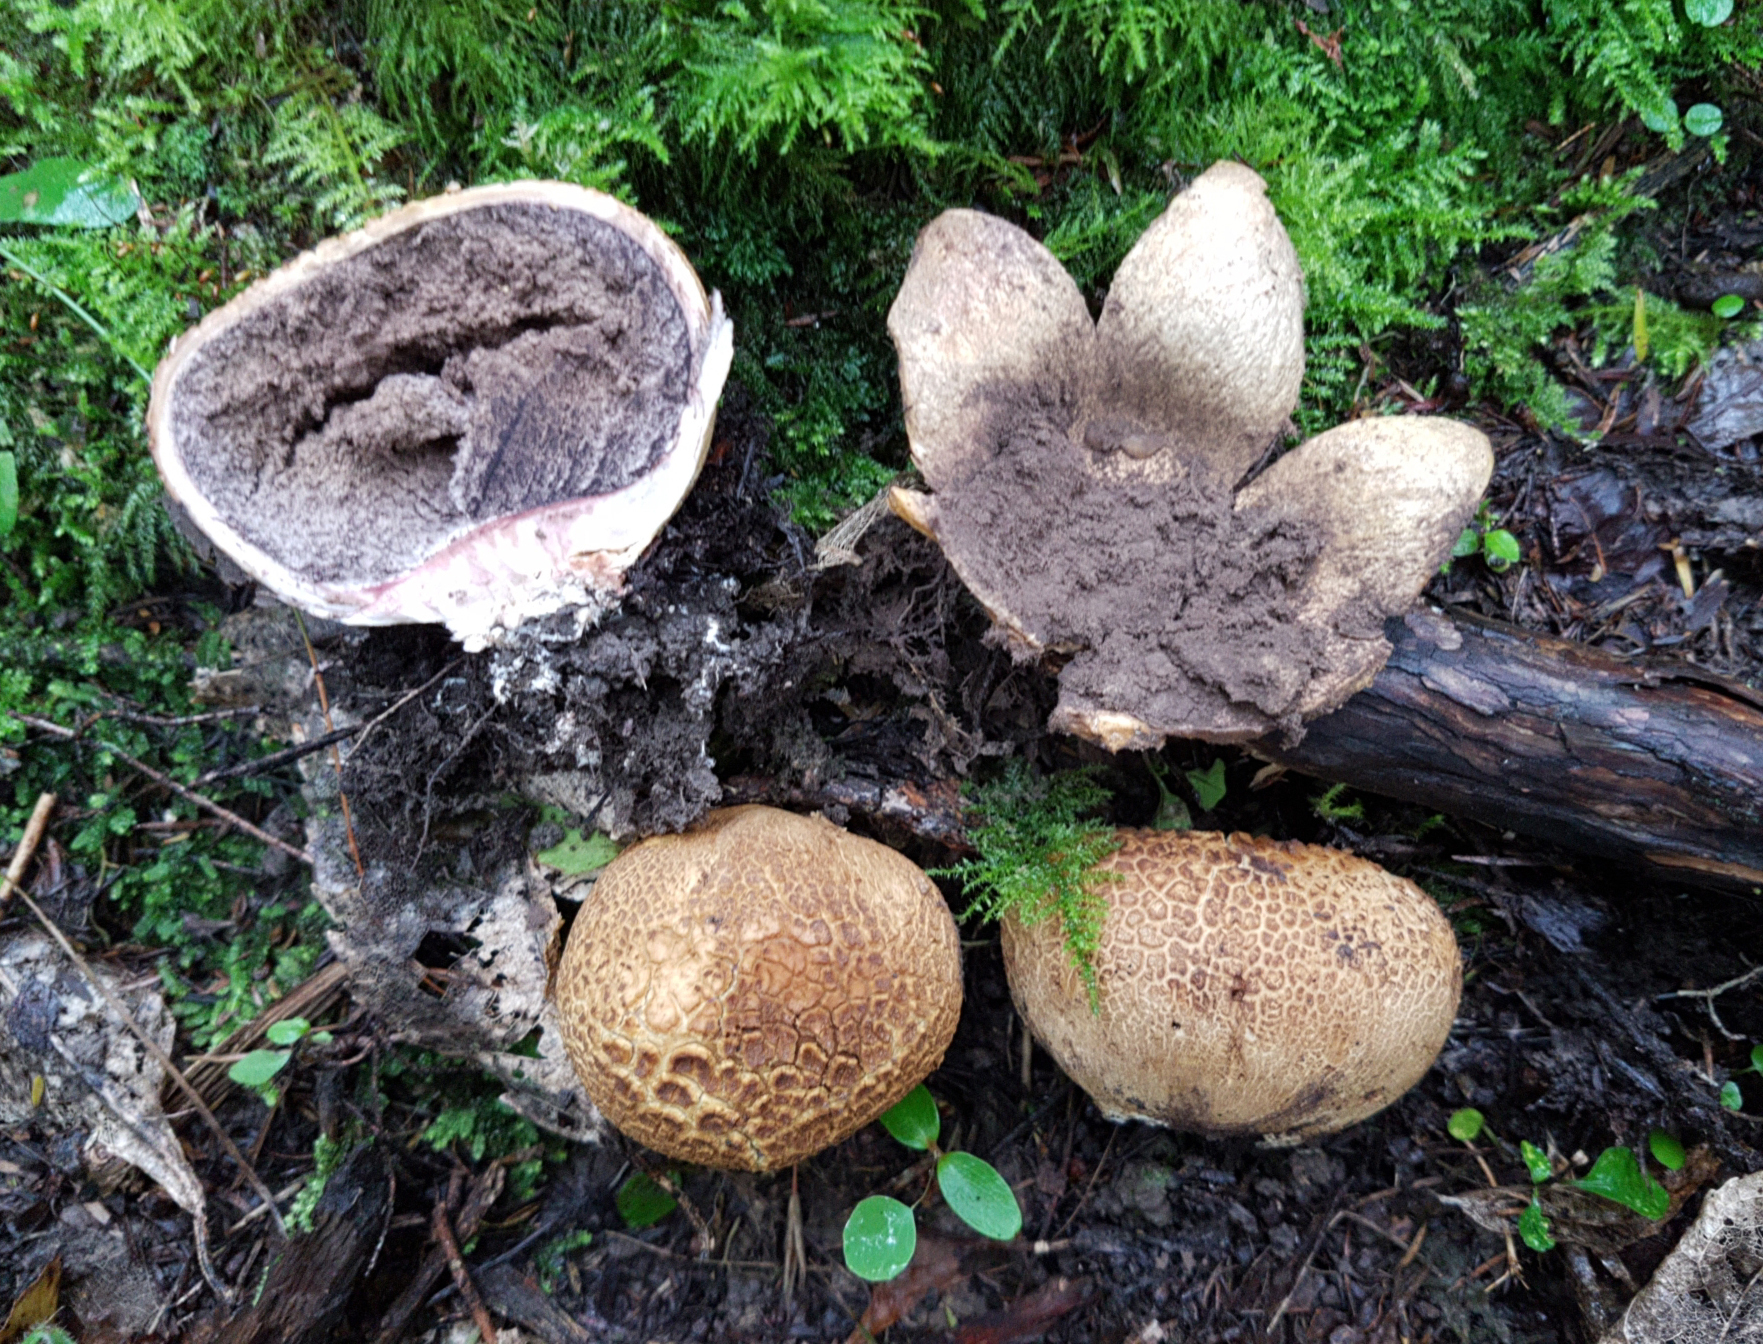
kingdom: Fungi
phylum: Basidiomycota
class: Agaricomycetes
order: Boletales
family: Sclerodermataceae
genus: Scleroderma
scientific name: Scleroderma
